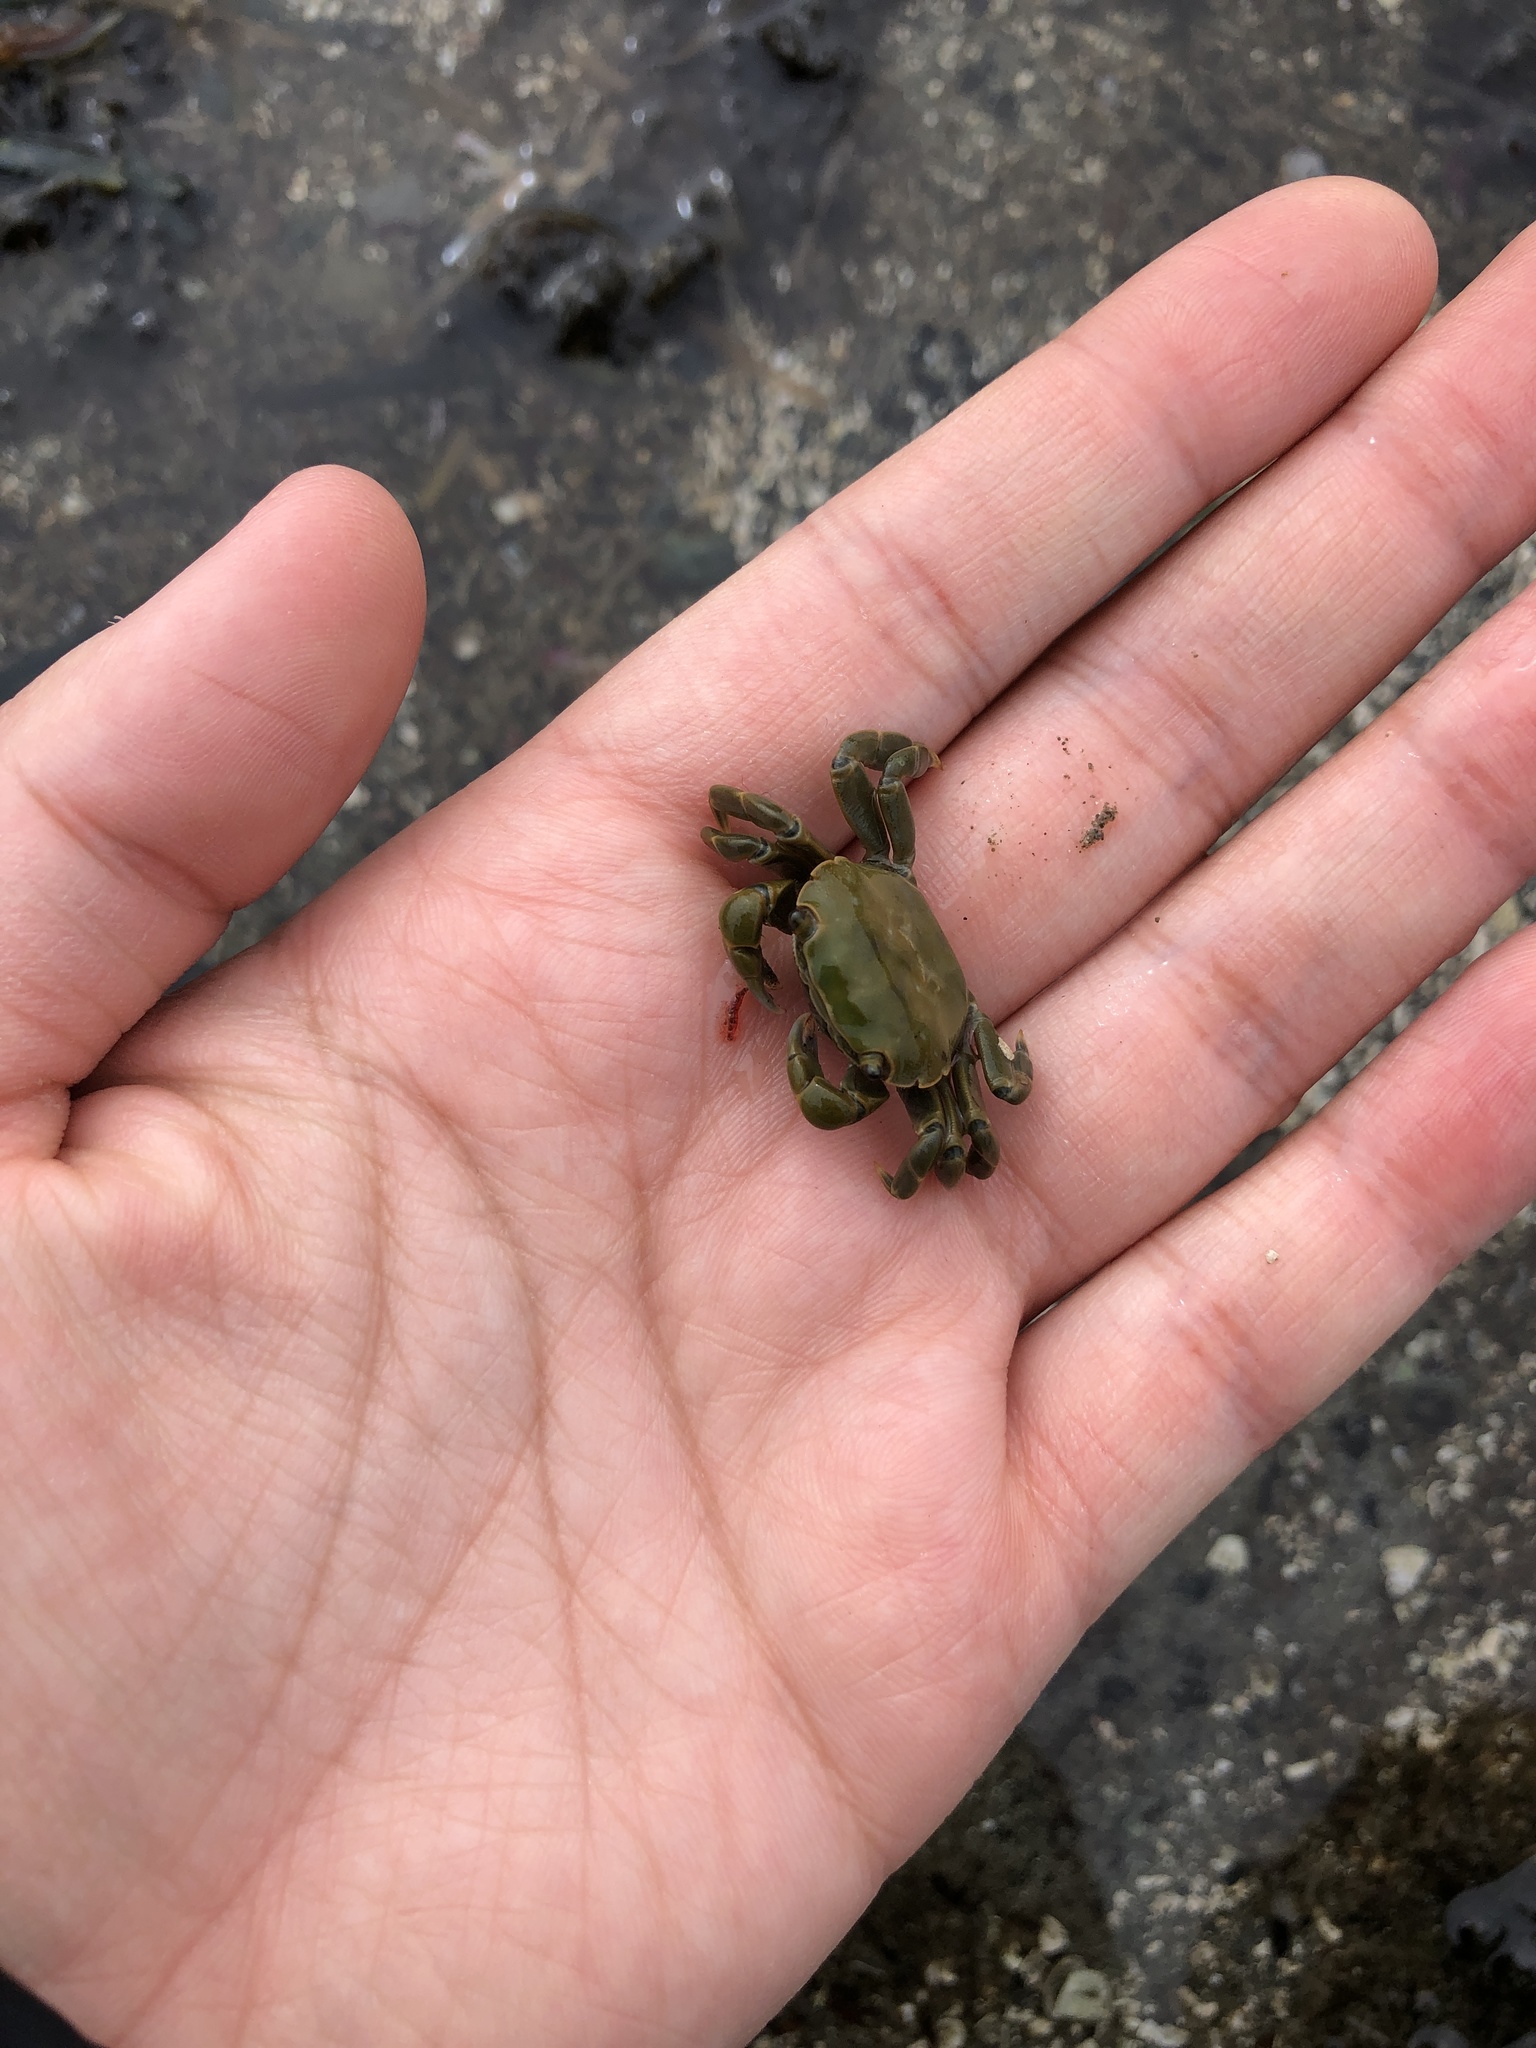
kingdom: Animalia
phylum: Arthropoda
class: Malacostraca
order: Decapoda
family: Varunidae
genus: Hemigrapsus
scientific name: Hemigrapsus nudus
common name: Purple shore crab
